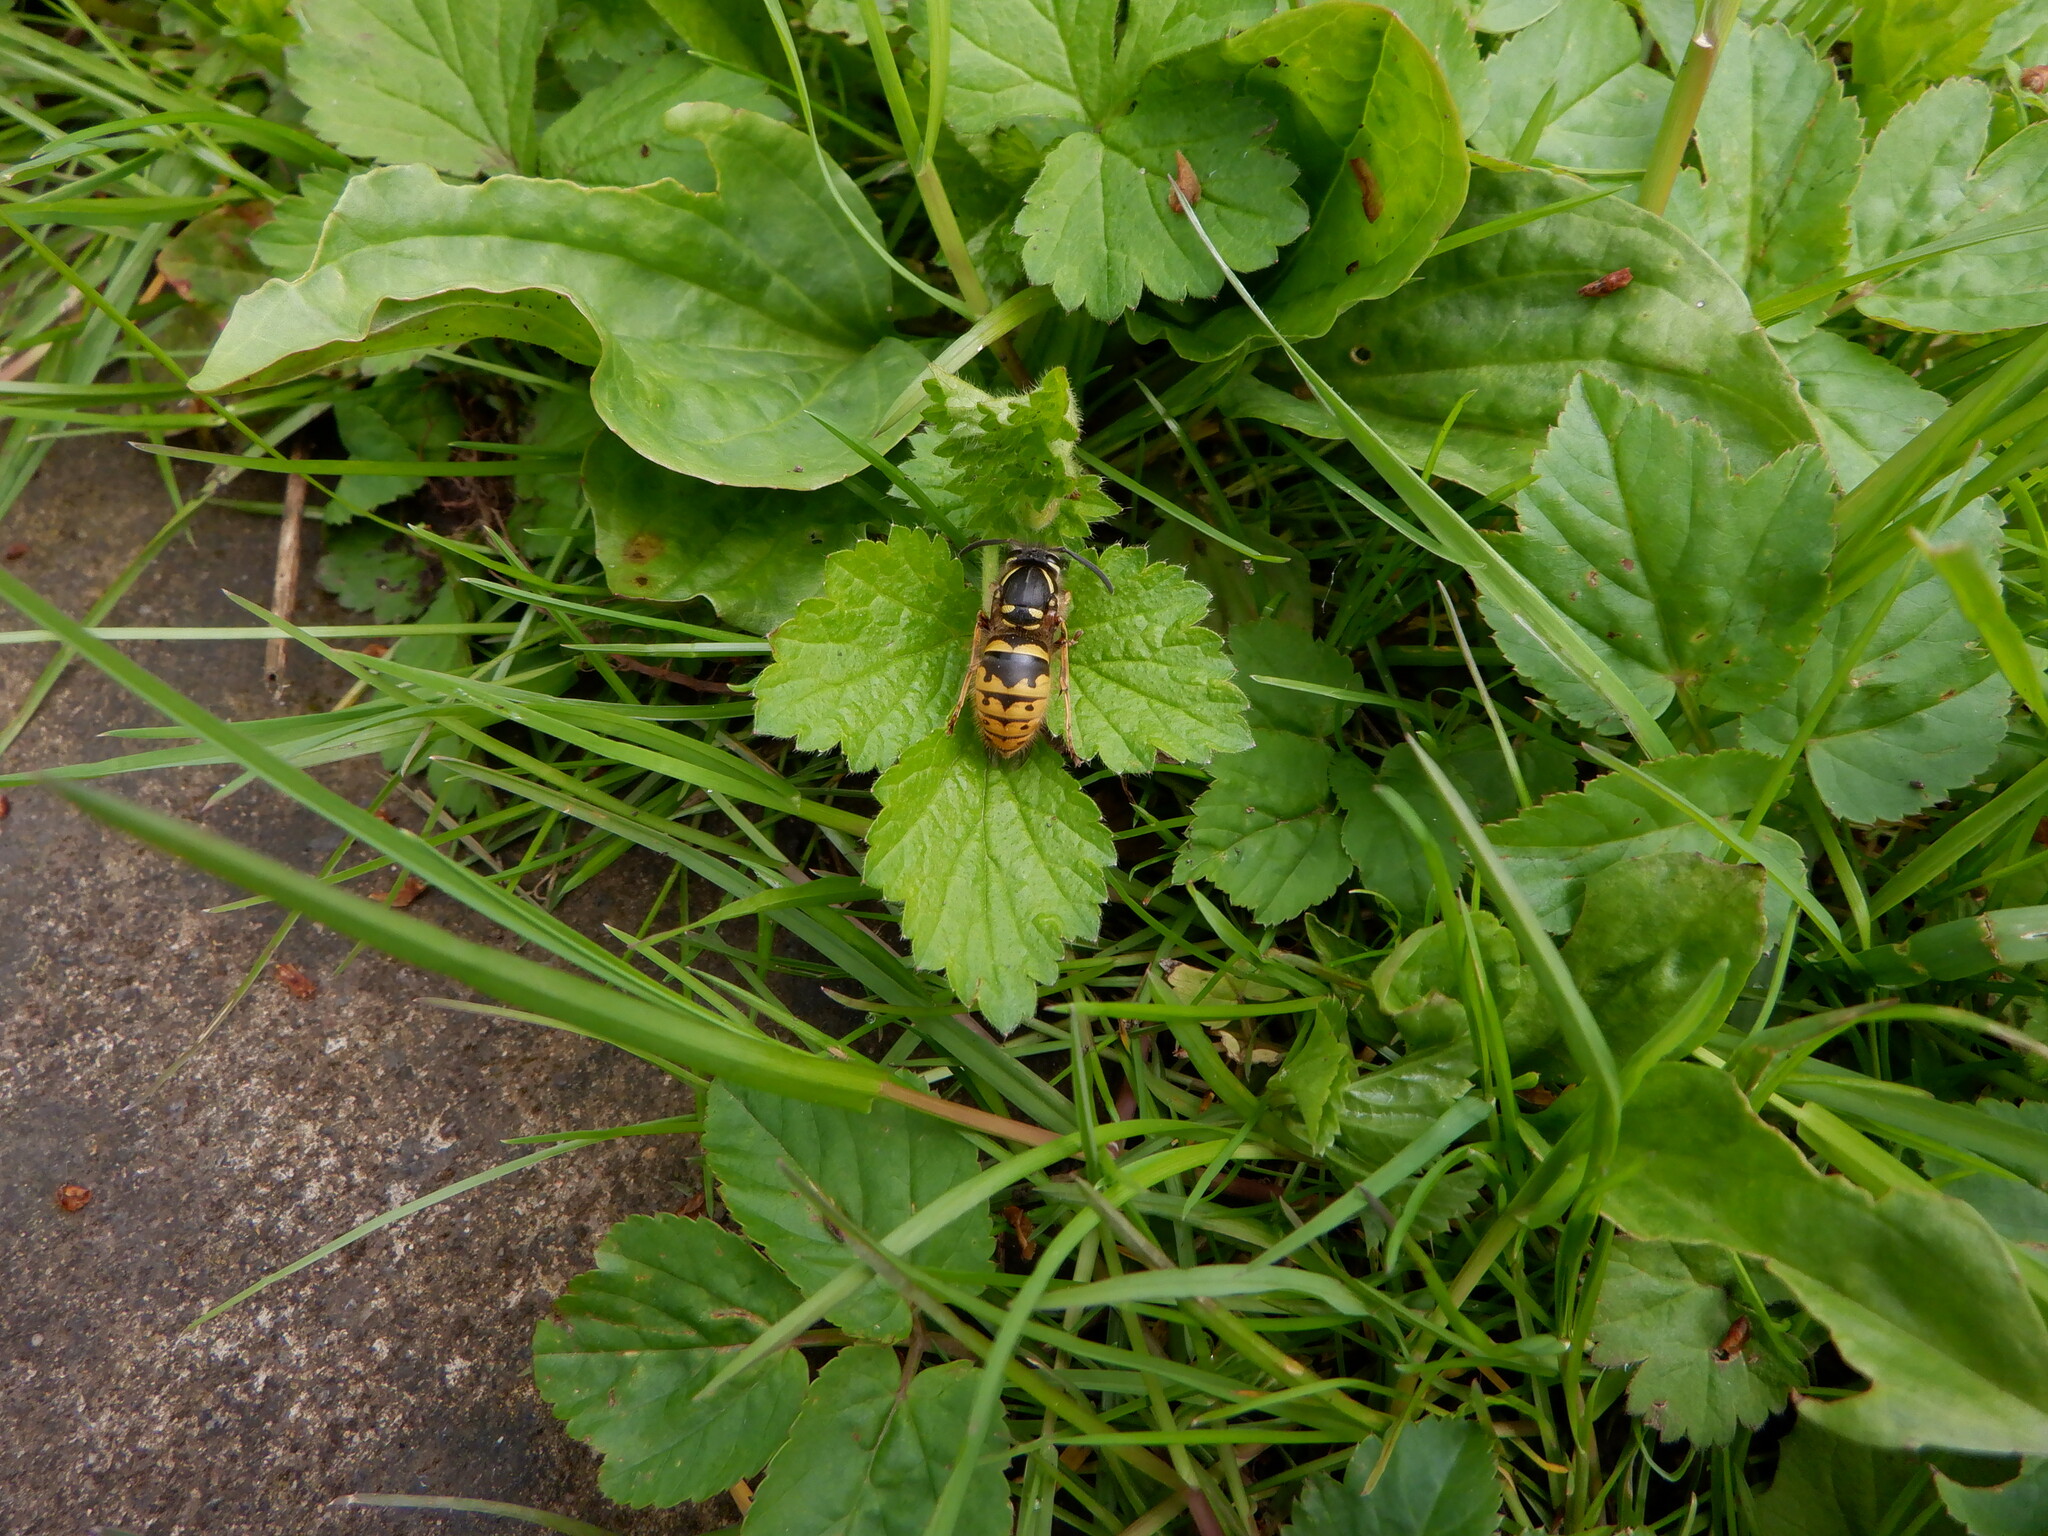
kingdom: Animalia
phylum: Arthropoda
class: Insecta
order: Hymenoptera
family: Vespidae
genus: Vespula
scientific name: Vespula vulgaris
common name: Common wasp
